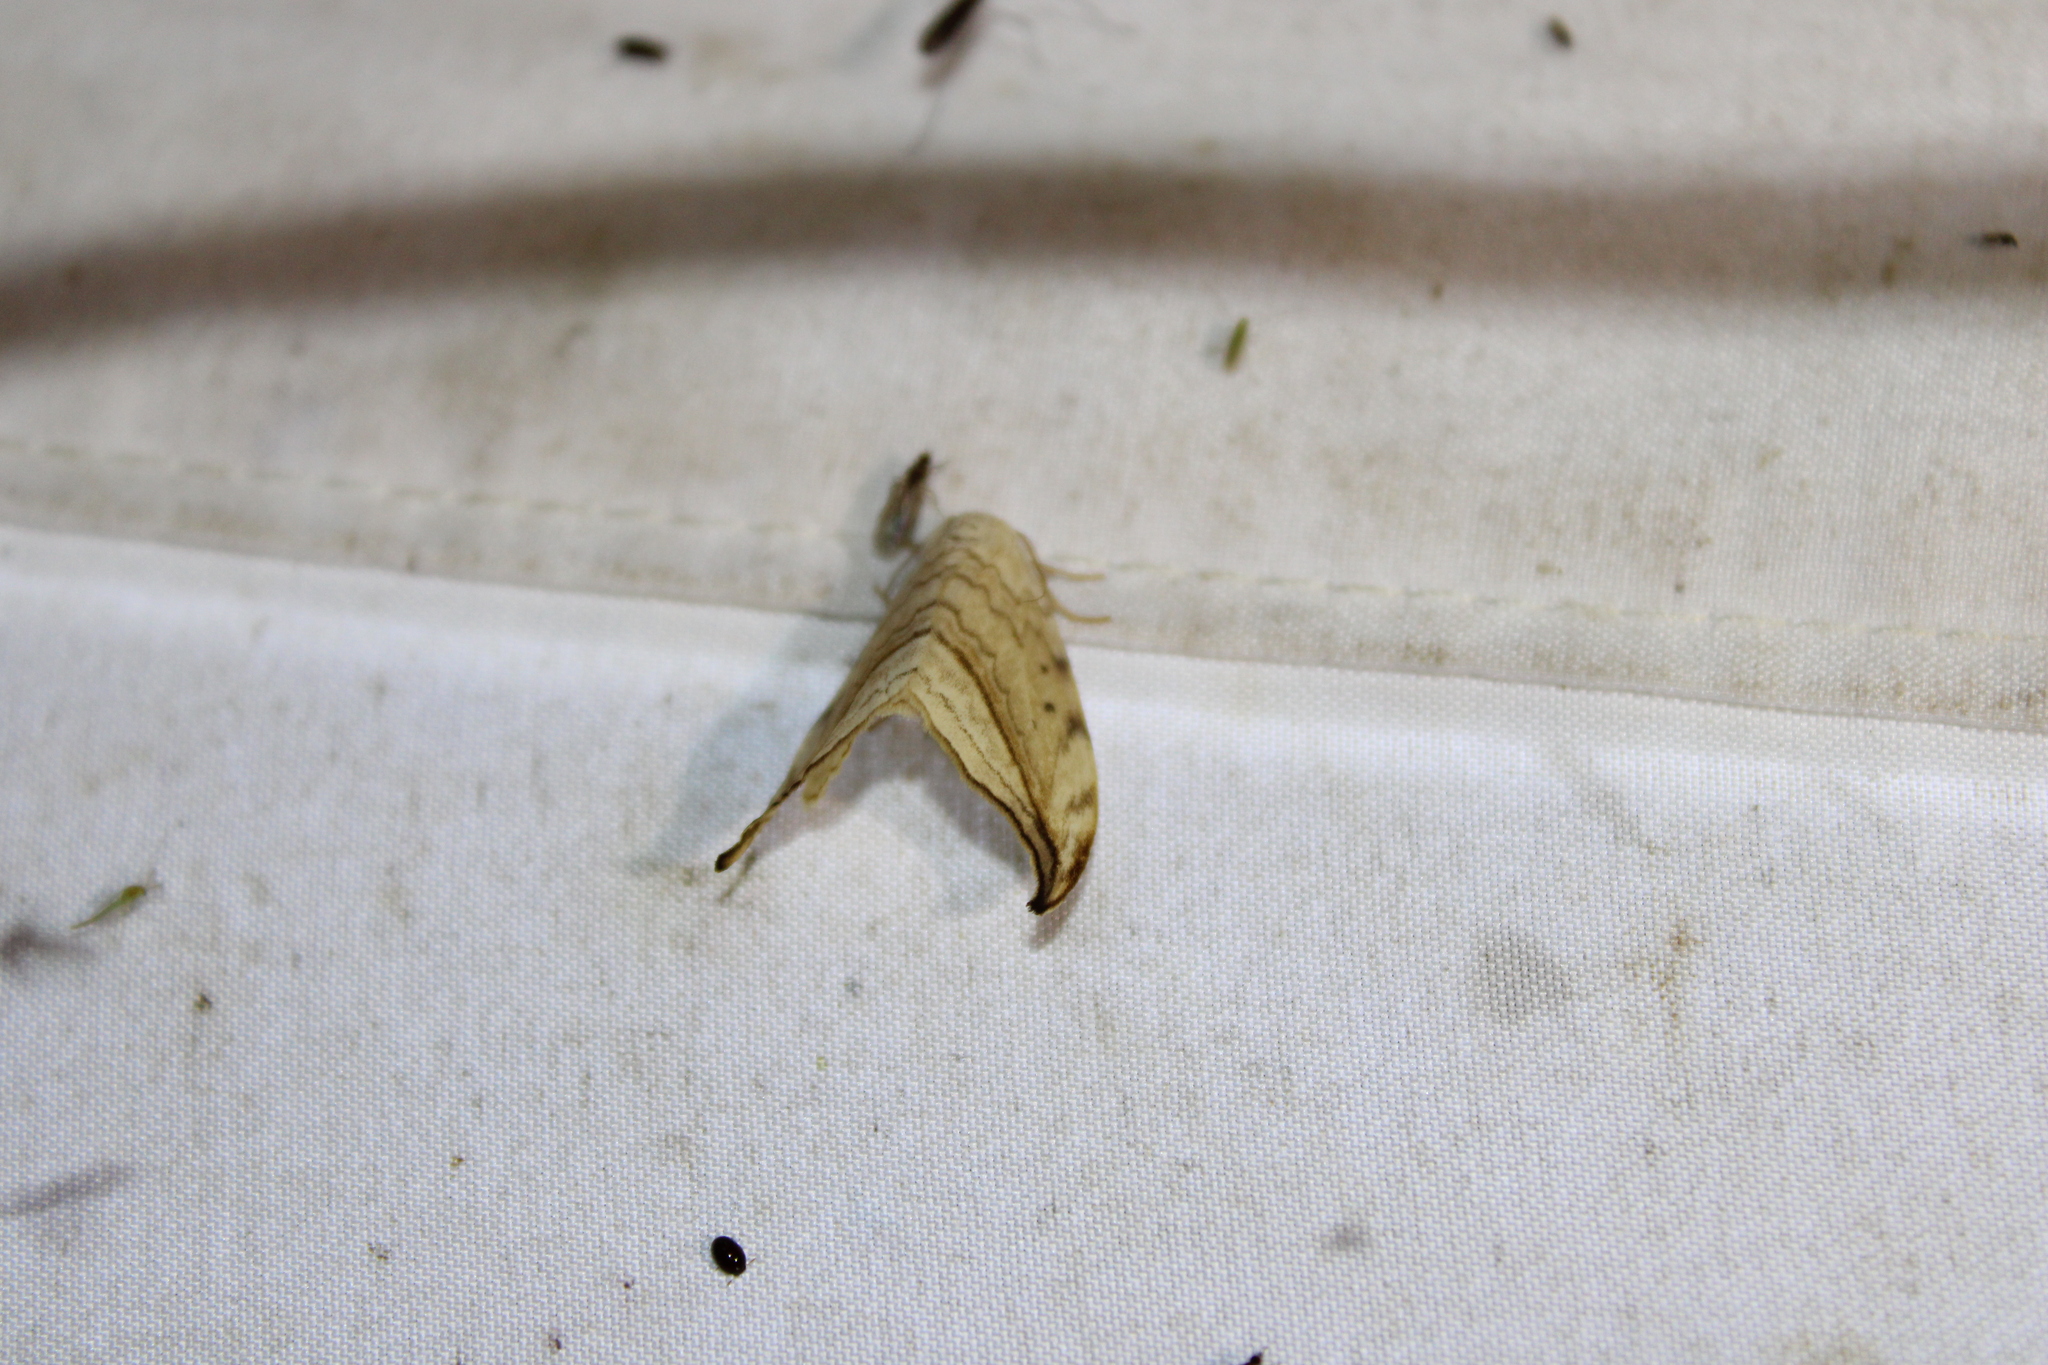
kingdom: Animalia
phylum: Arthropoda
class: Insecta
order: Lepidoptera
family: Drepanidae
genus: Drepana
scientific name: Drepana arcuata
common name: Arched hooktip moth
